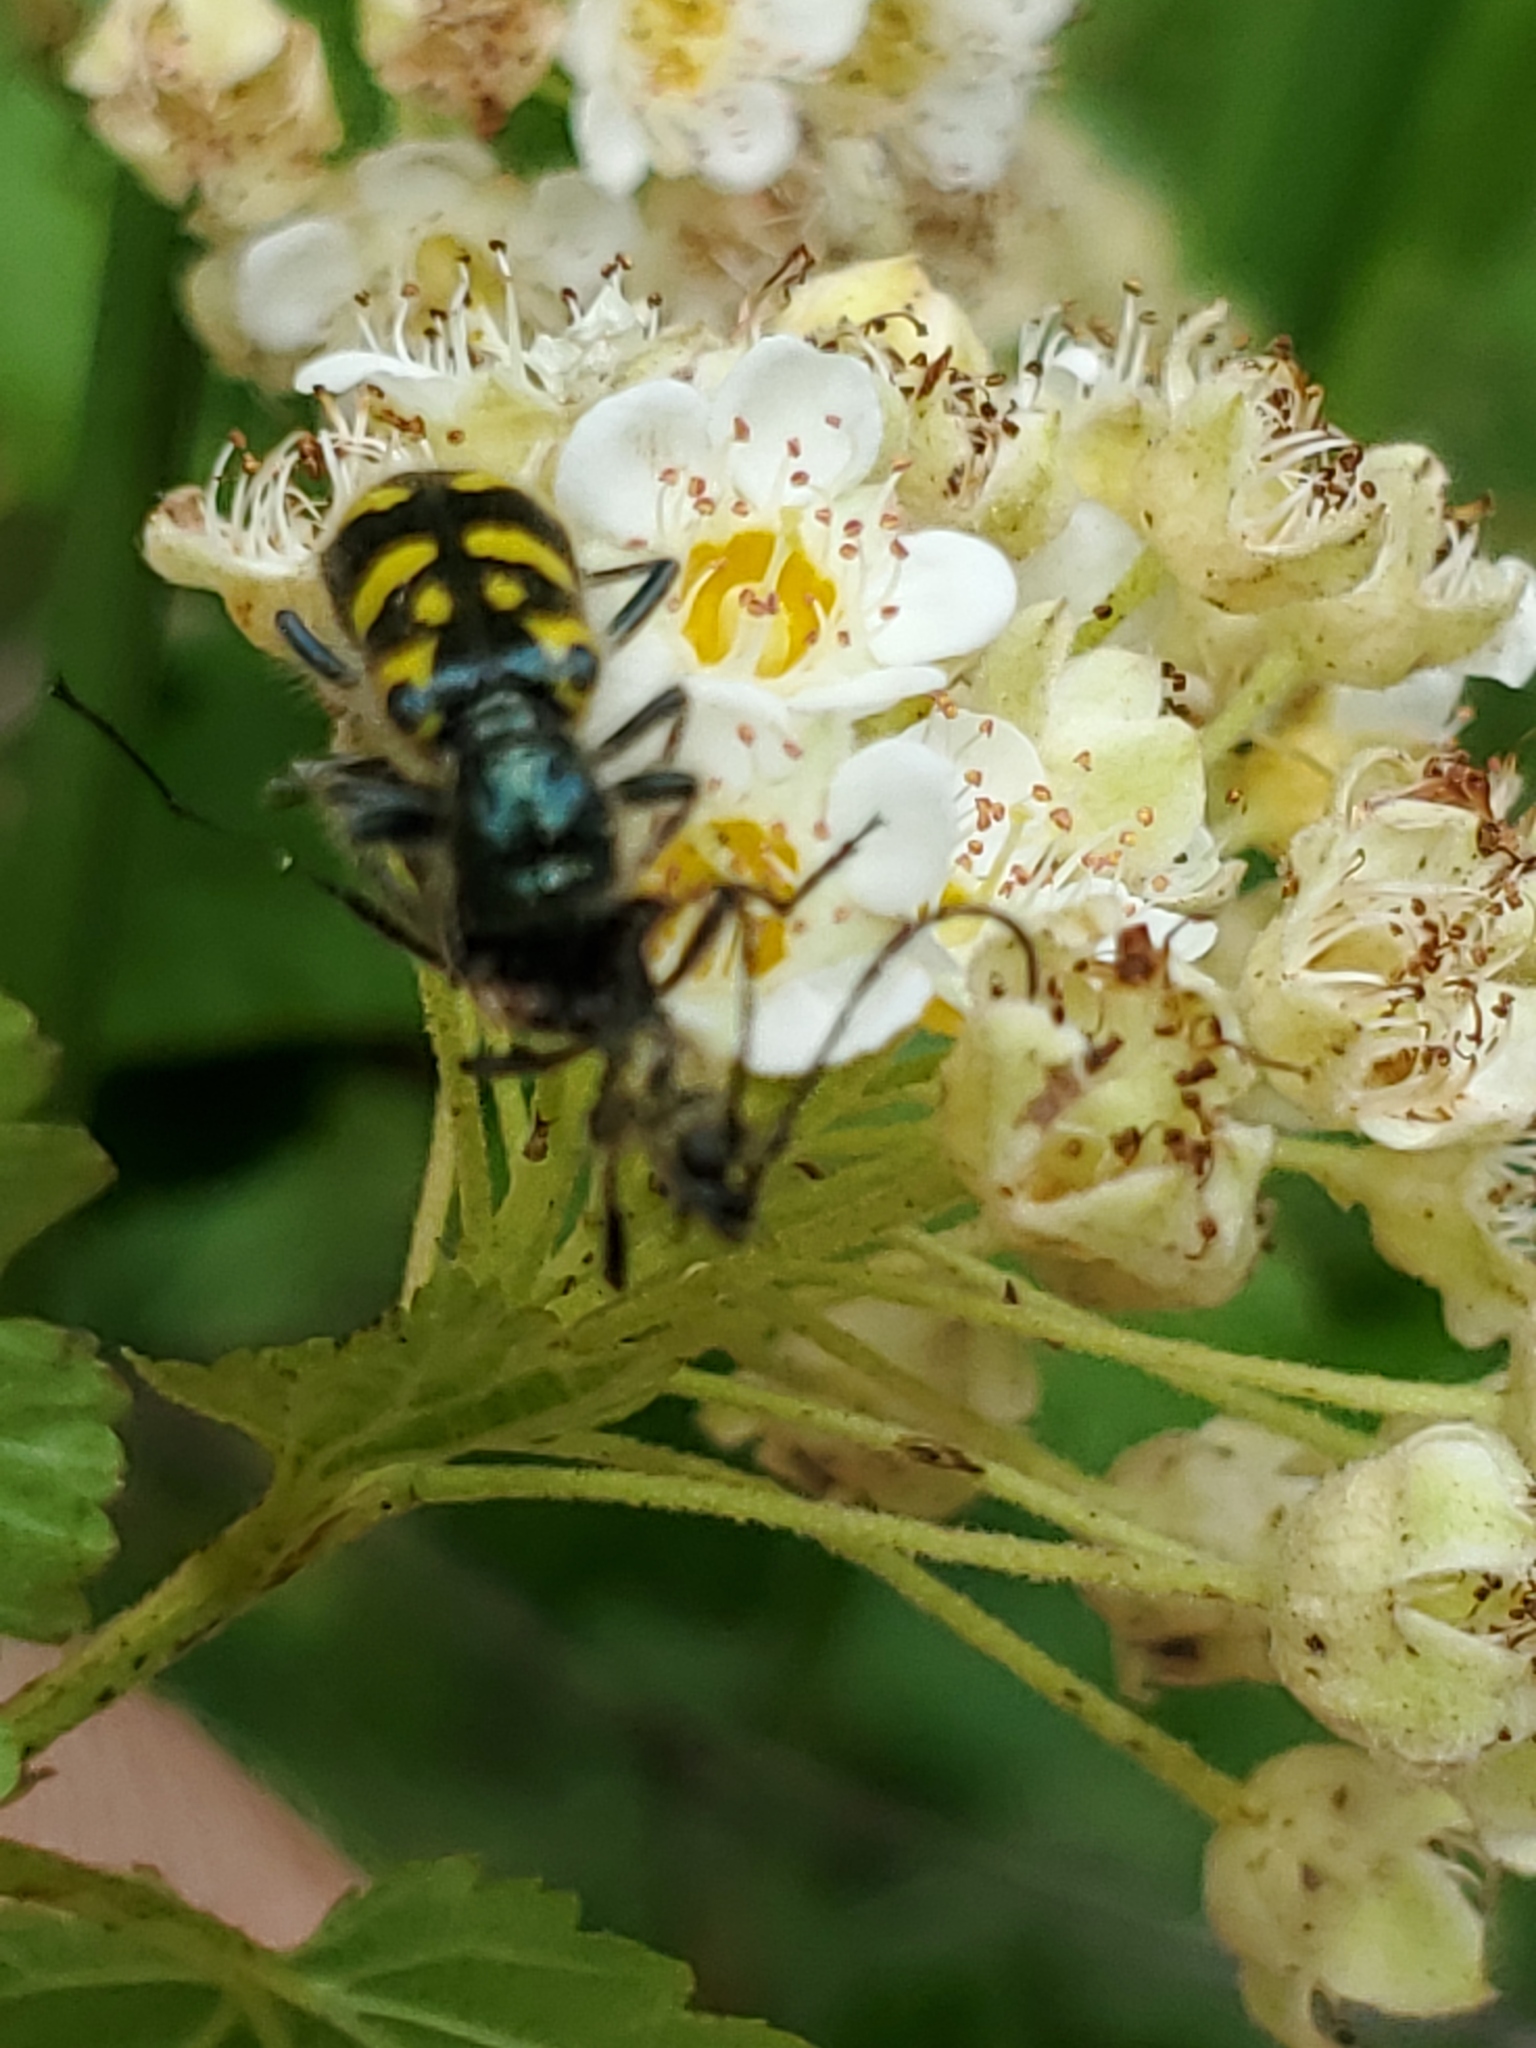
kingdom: Animalia
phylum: Arthropoda
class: Insecta
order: Coleoptera
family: Cleridae
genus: Trichodes
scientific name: Trichodes ornatus
